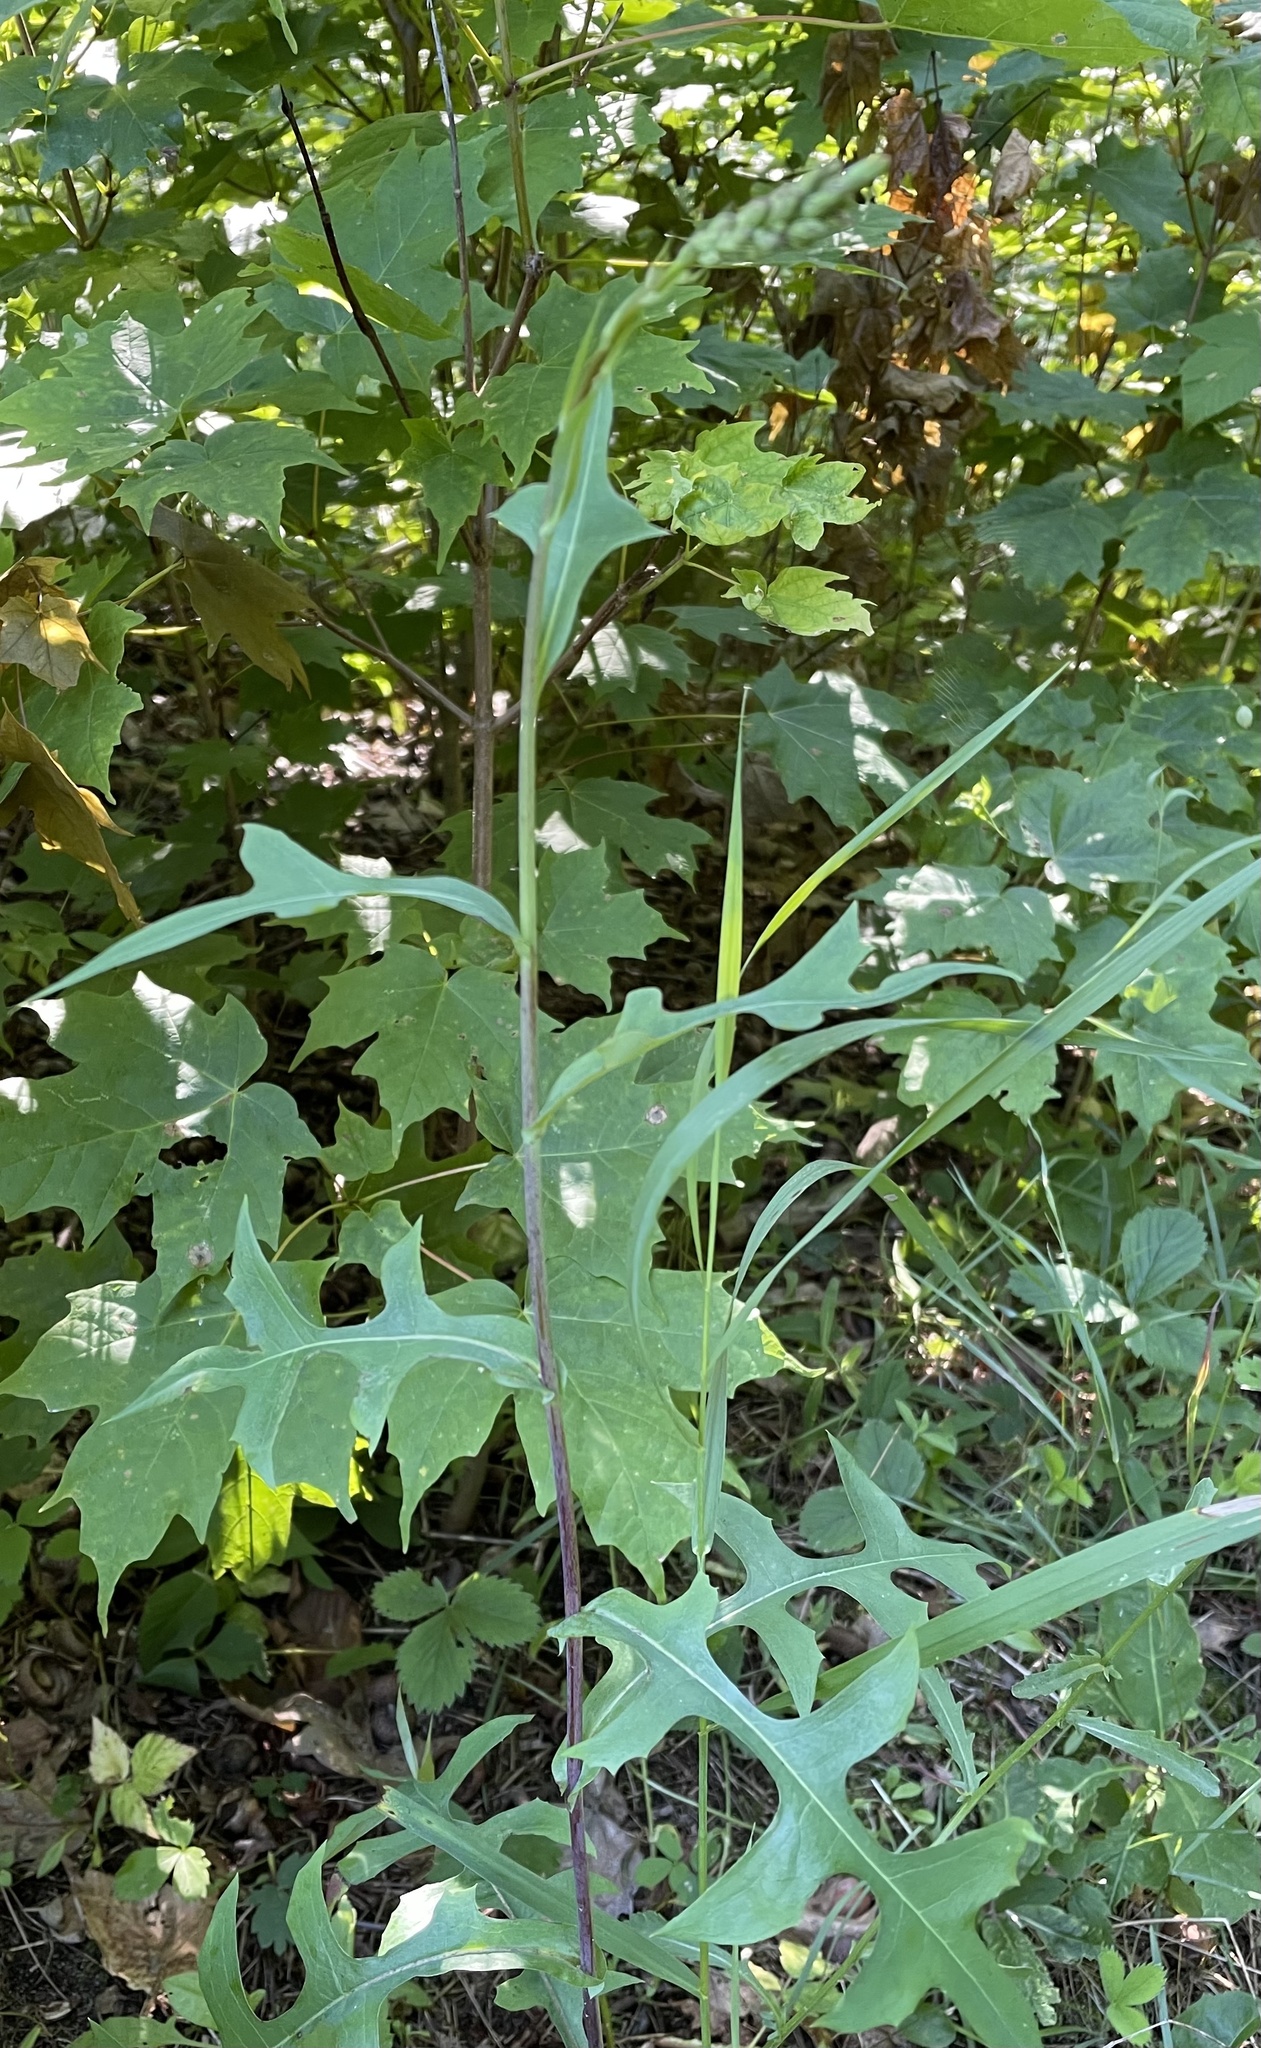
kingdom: Plantae
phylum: Tracheophyta
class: Magnoliopsida
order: Asterales
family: Asteraceae
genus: Lactuca
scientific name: Lactuca canadensis
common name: Canada lettuce
